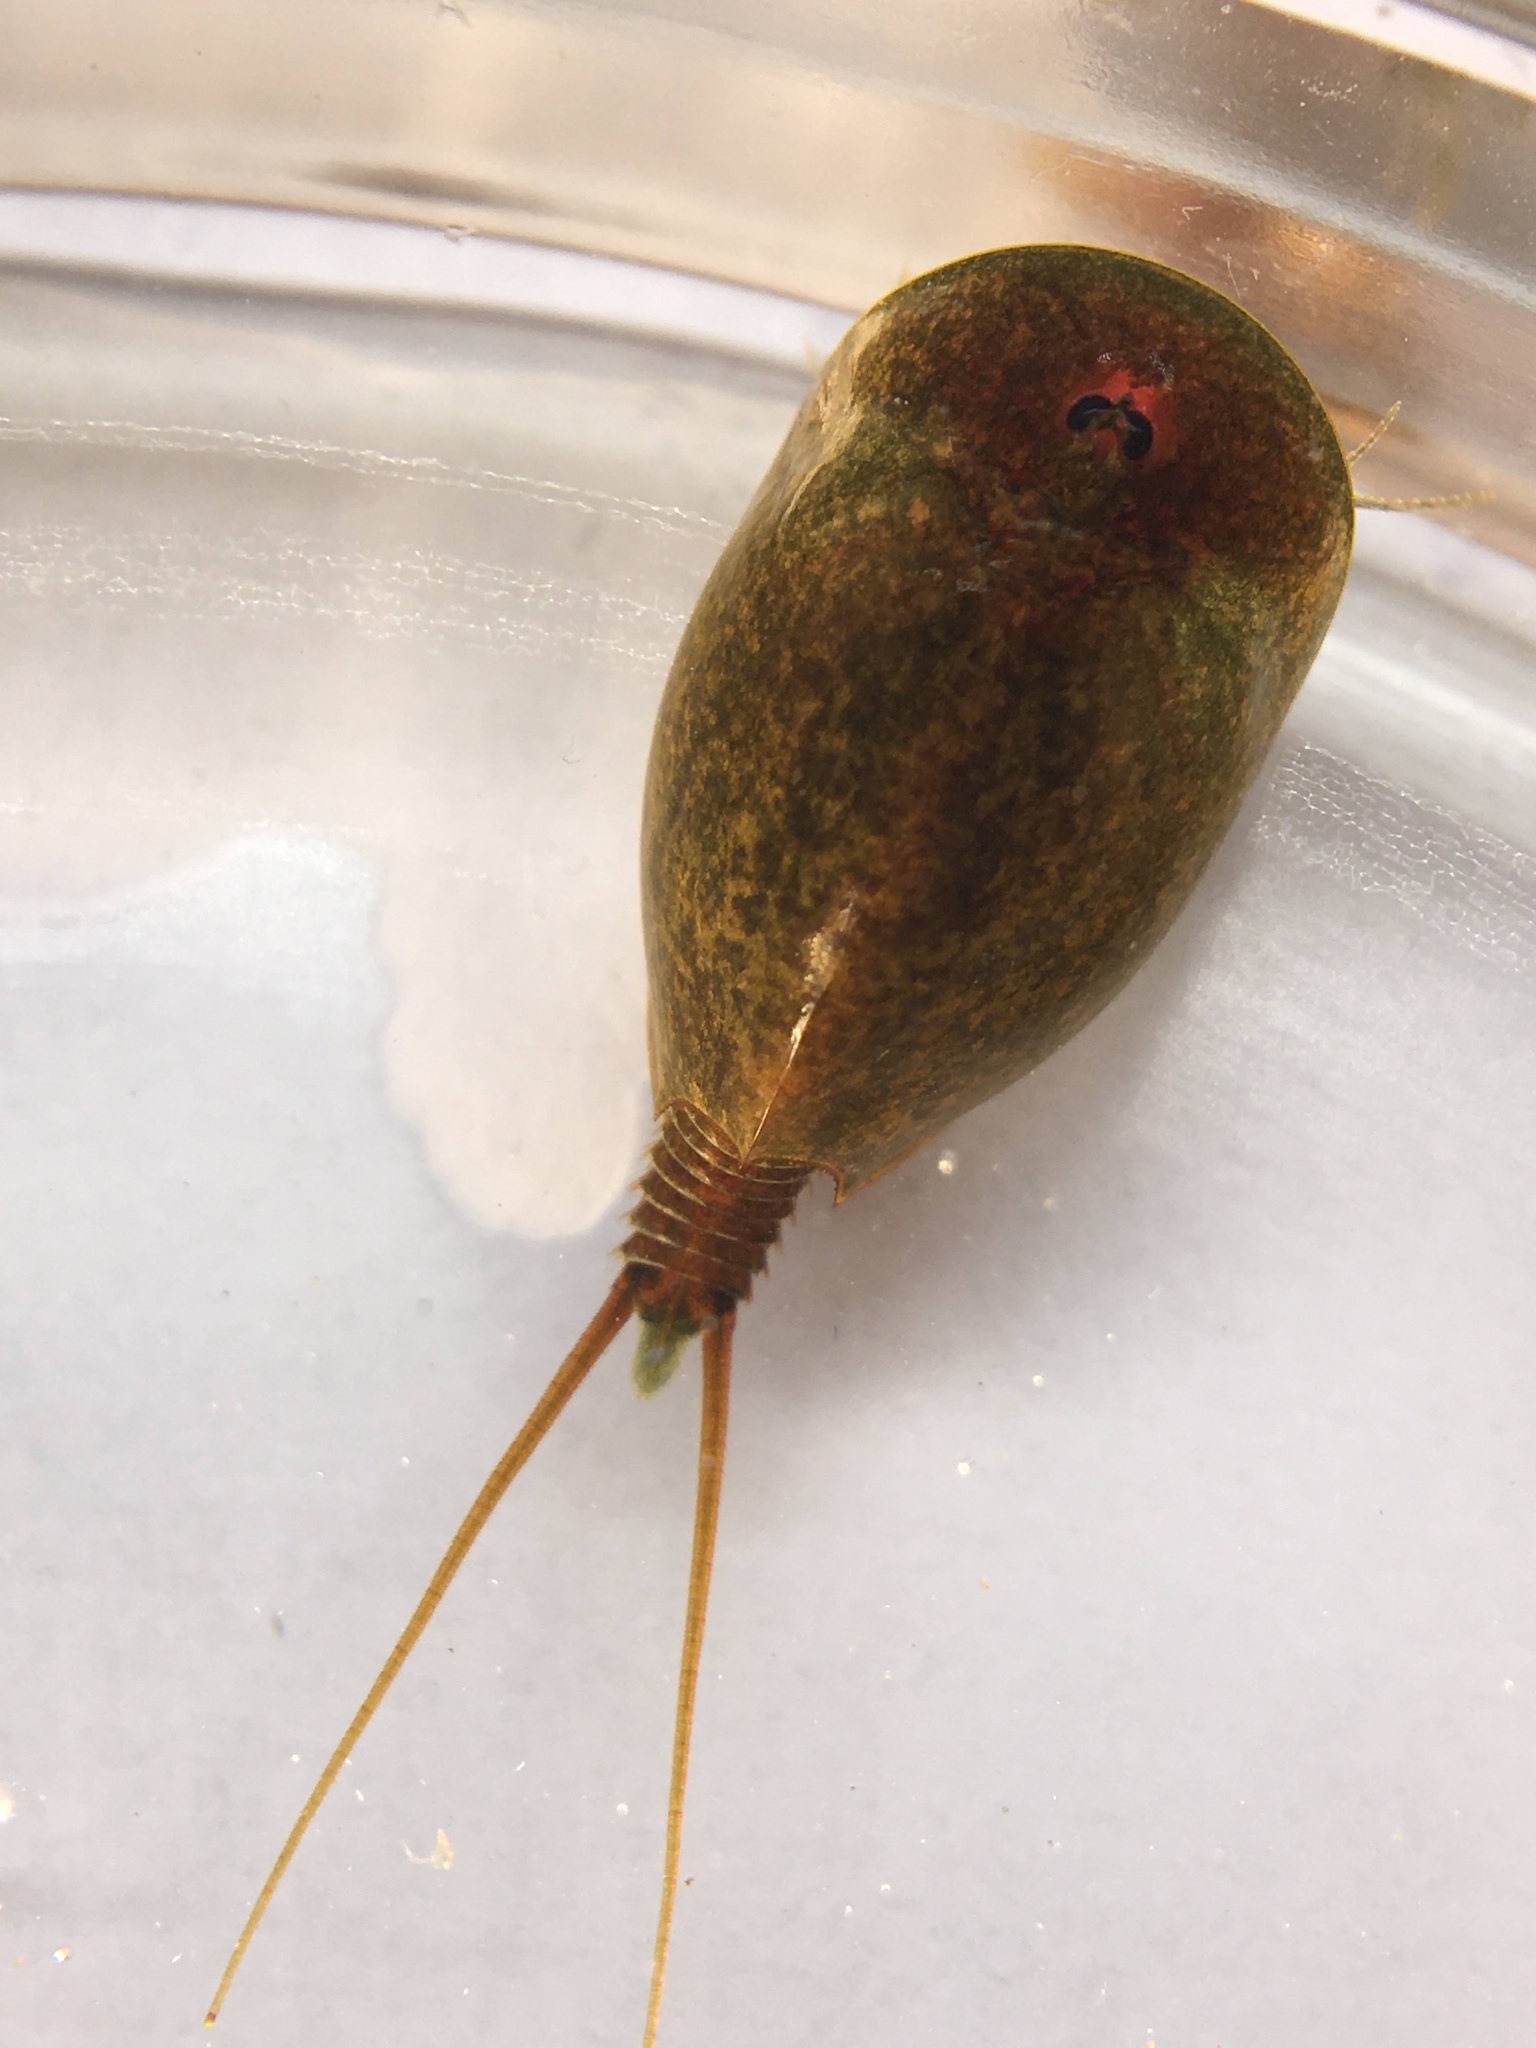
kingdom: Animalia
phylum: Arthropoda
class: Branchiopoda
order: Notostraca
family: Triopsidae
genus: Lepidurus
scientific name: Lepidurus apus
